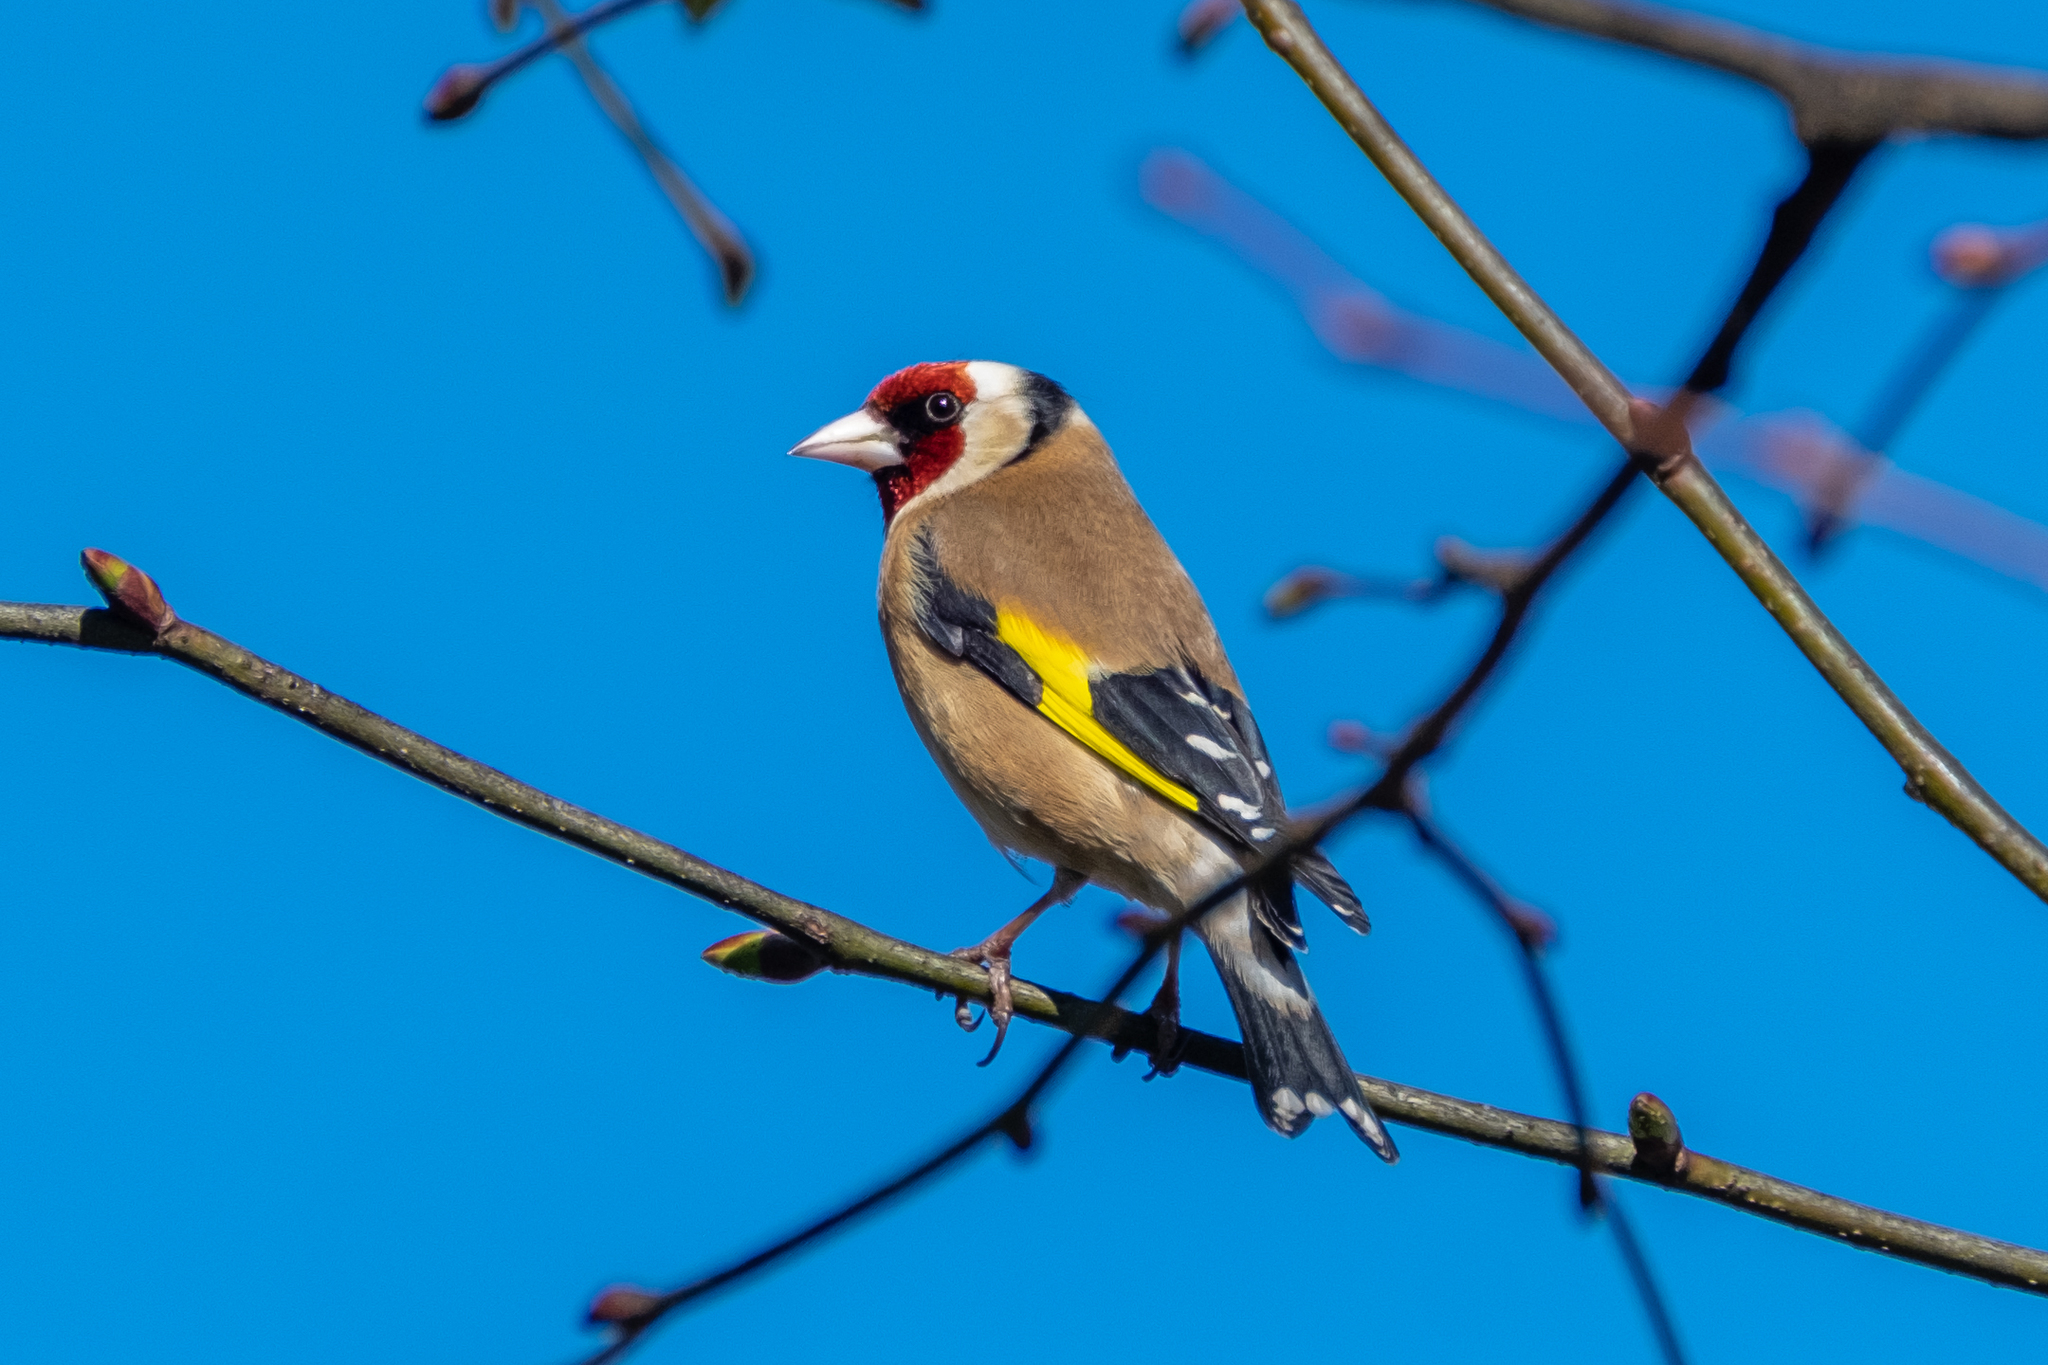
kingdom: Animalia
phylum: Chordata
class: Aves
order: Passeriformes
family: Fringillidae
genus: Carduelis
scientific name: Carduelis carduelis
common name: European goldfinch
